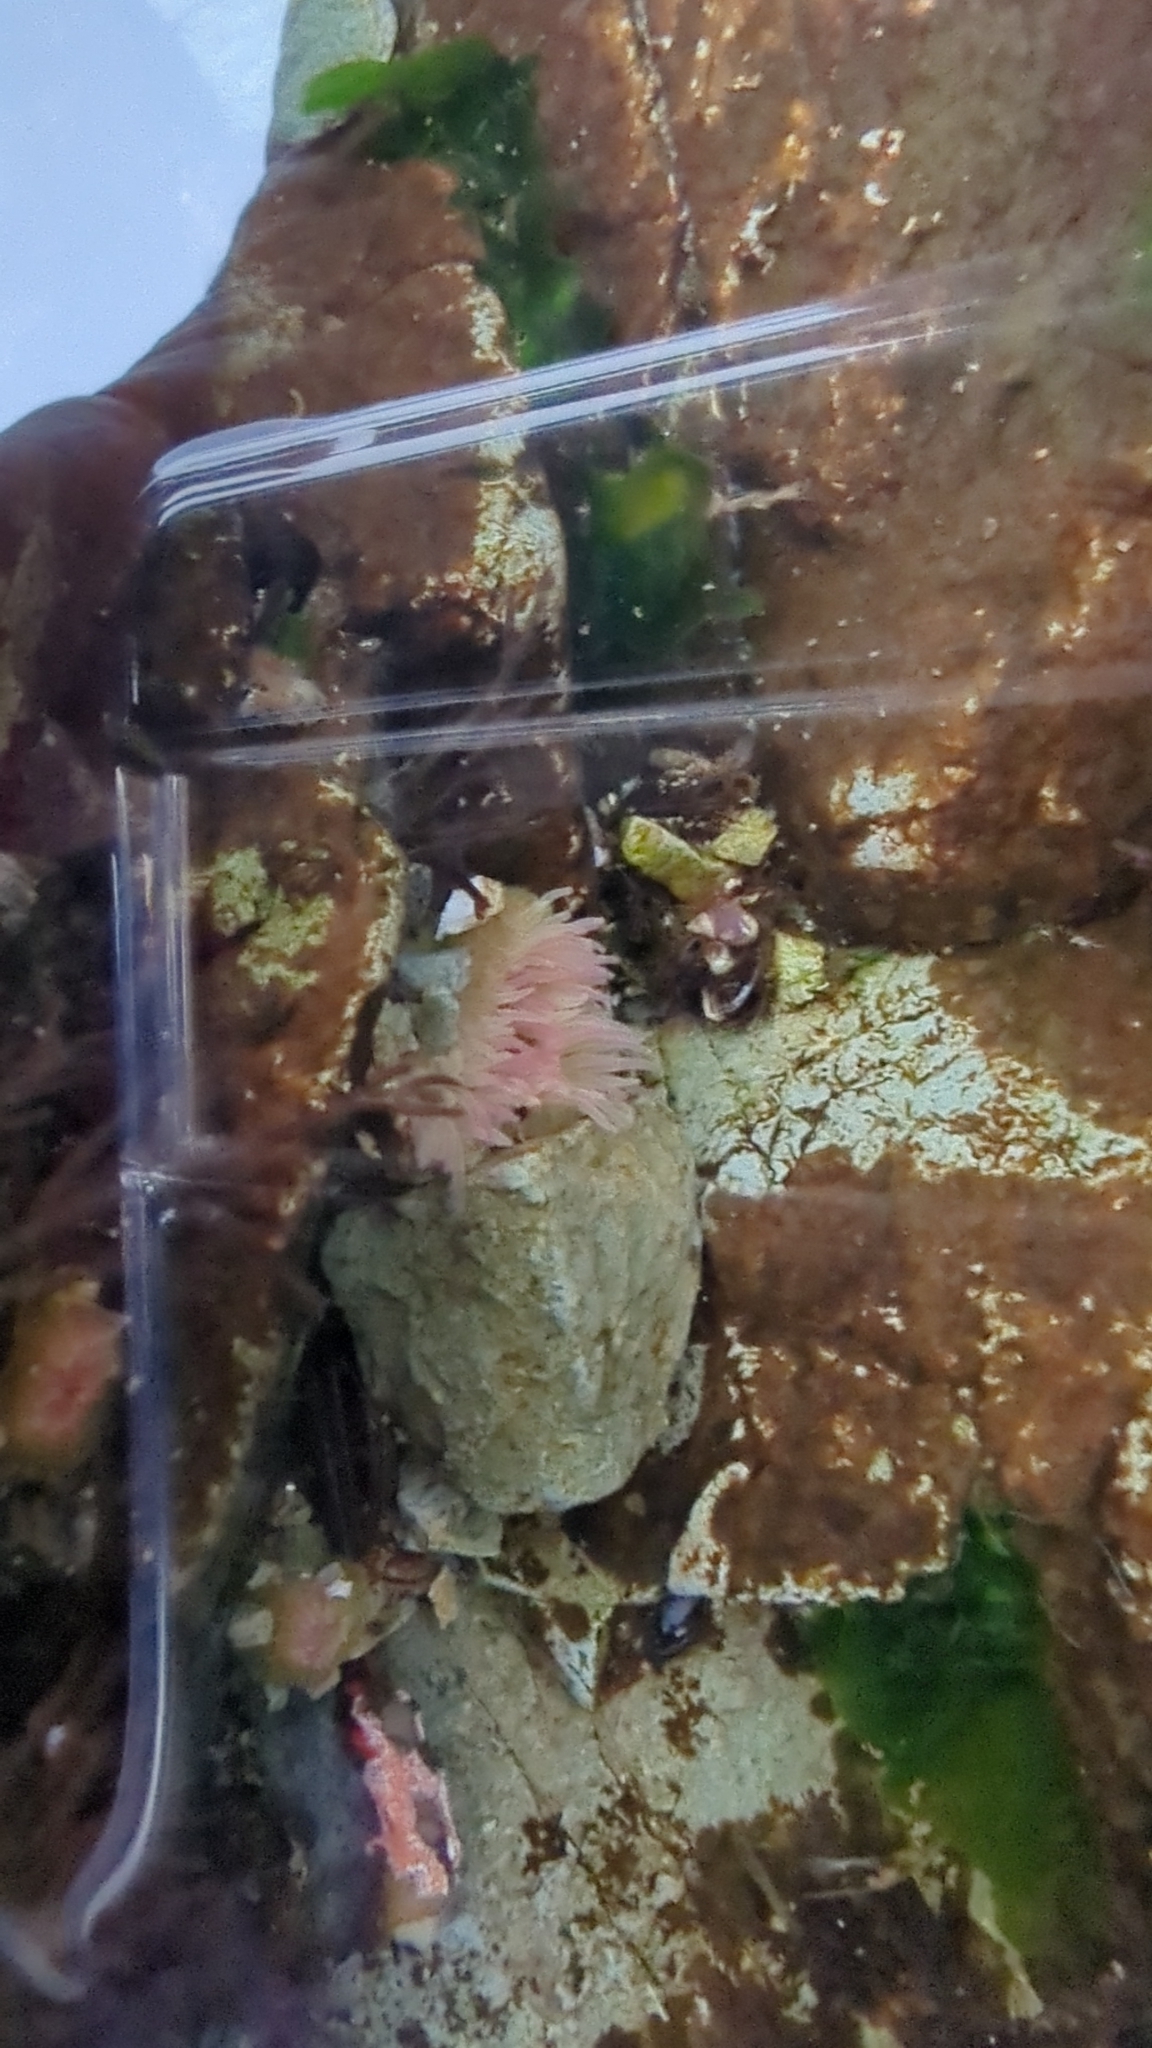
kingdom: Animalia
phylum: Cnidaria
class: Anthozoa
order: Actiniaria
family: Actiniidae
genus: Anthopleura
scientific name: Anthopleura elegantissima
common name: Clonal anemone
